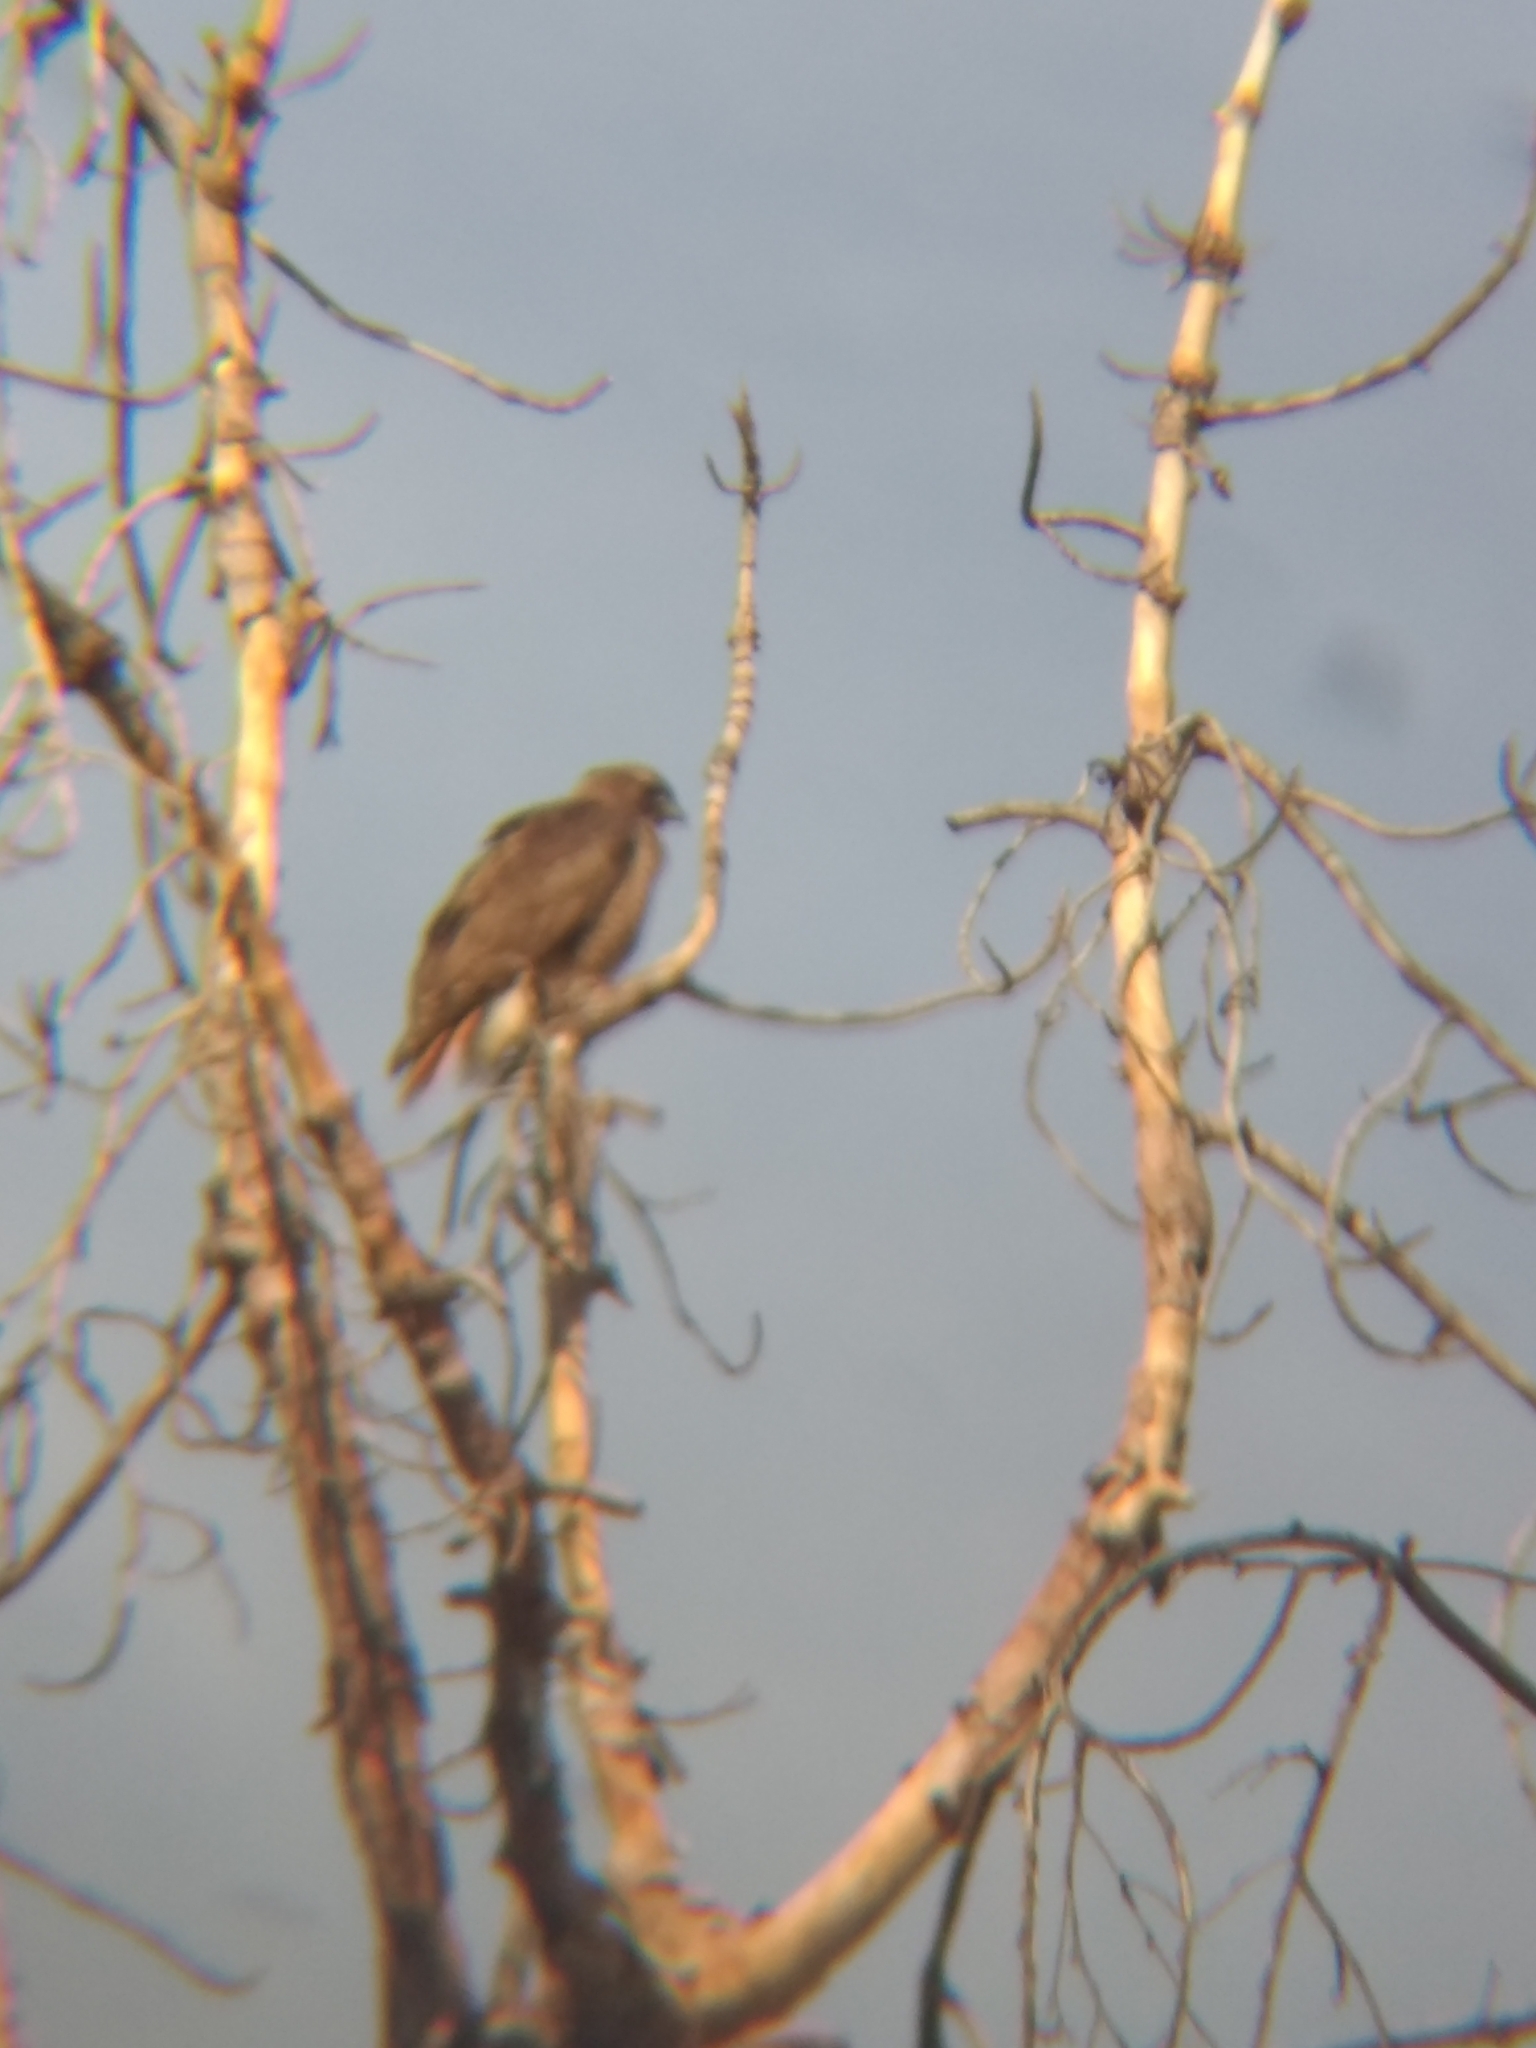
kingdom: Animalia
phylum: Chordata
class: Aves
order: Accipitriformes
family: Accipitridae
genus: Buteo
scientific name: Buteo jamaicensis
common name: Red-tailed hawk
